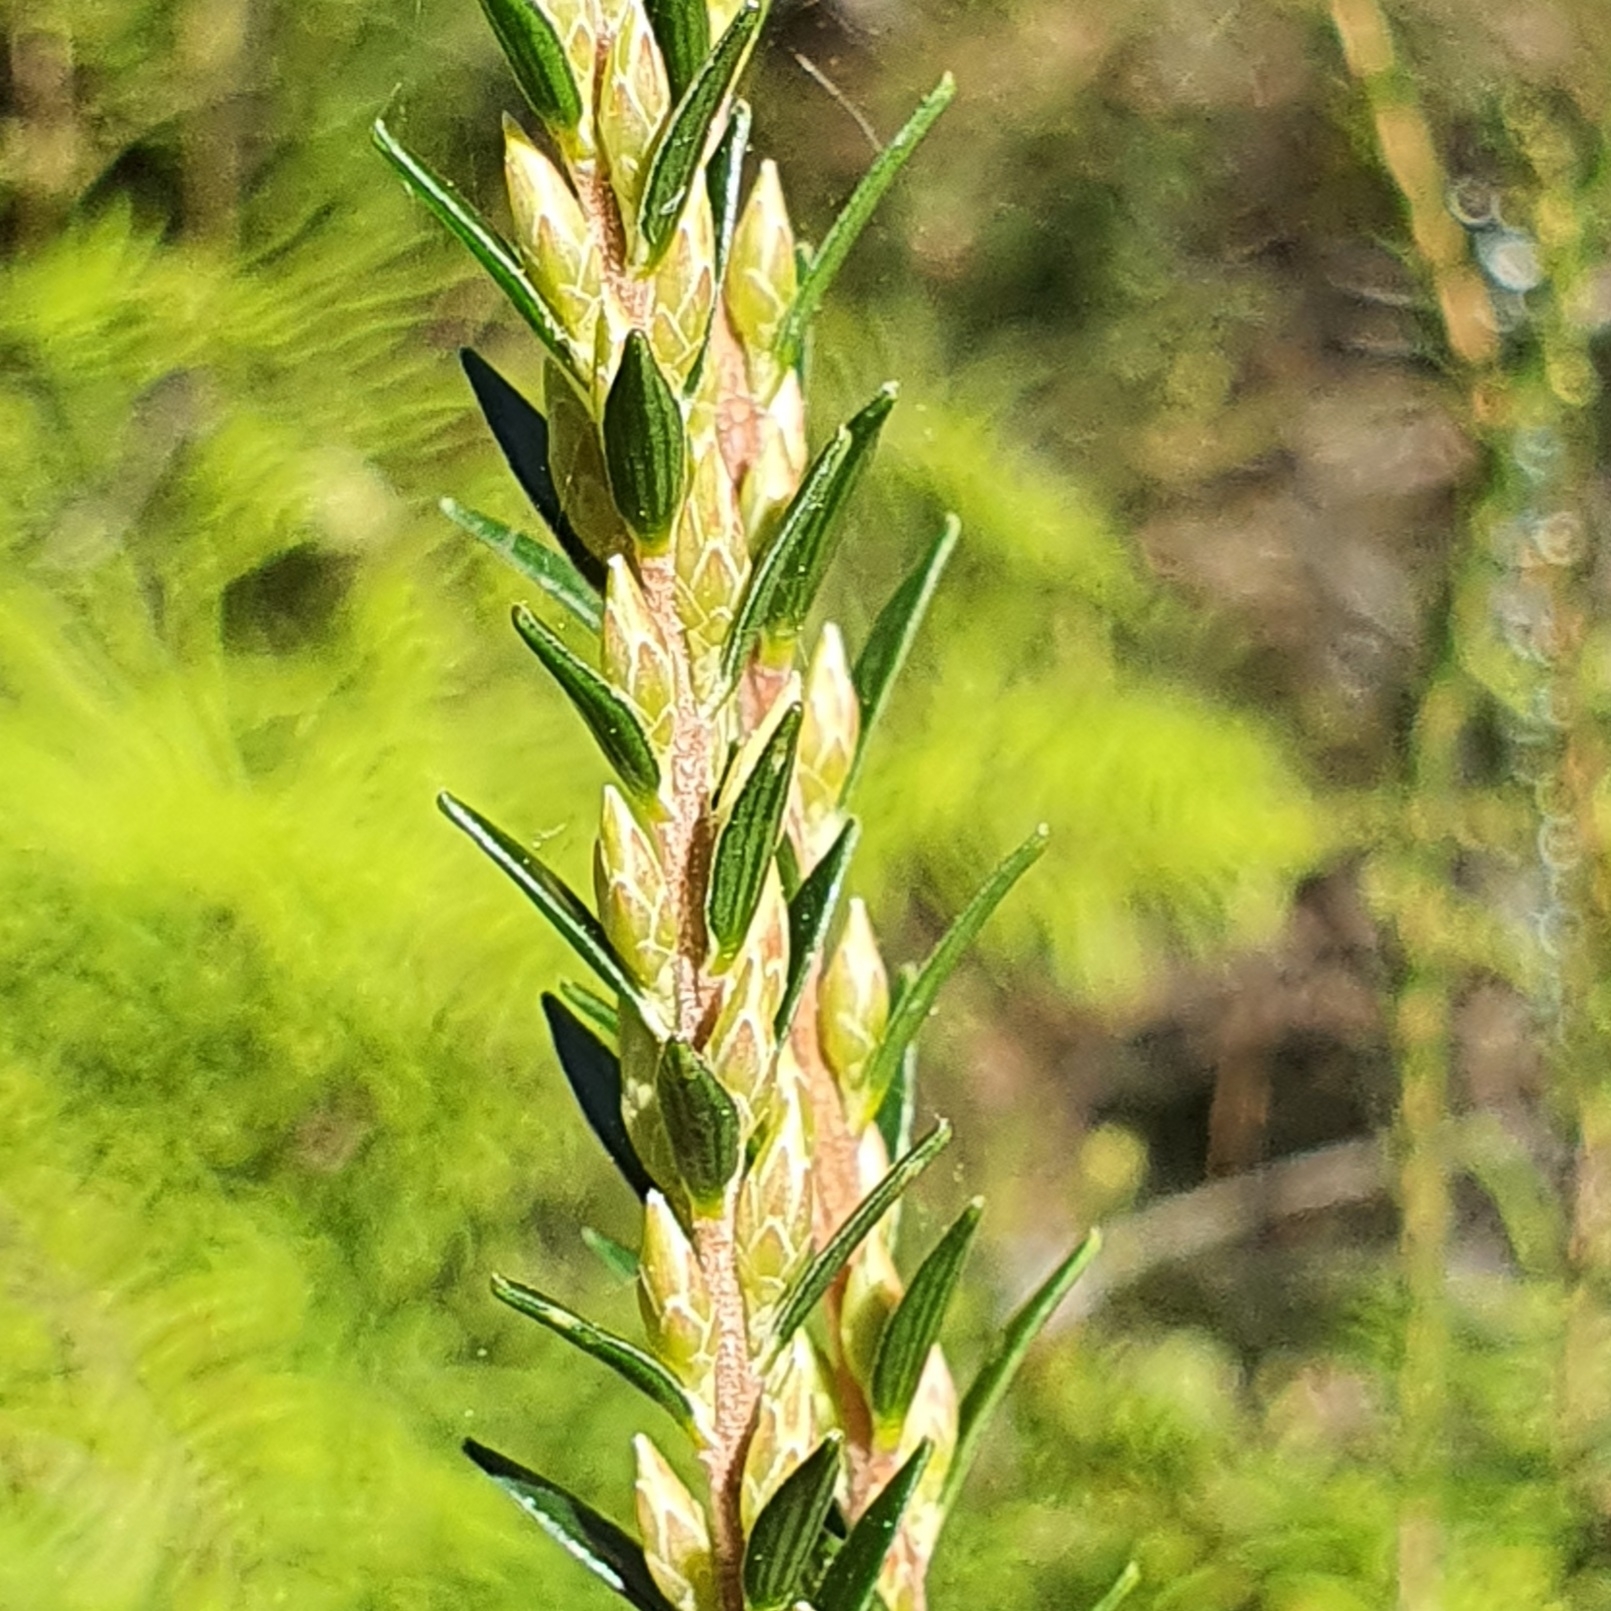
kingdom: Plantae
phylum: Tracheophyta
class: Magnoliopsida
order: Ericales
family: Ericaceae
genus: Epacris
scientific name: Epacris obtusifolia
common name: Blunt-leaf australian-heath
